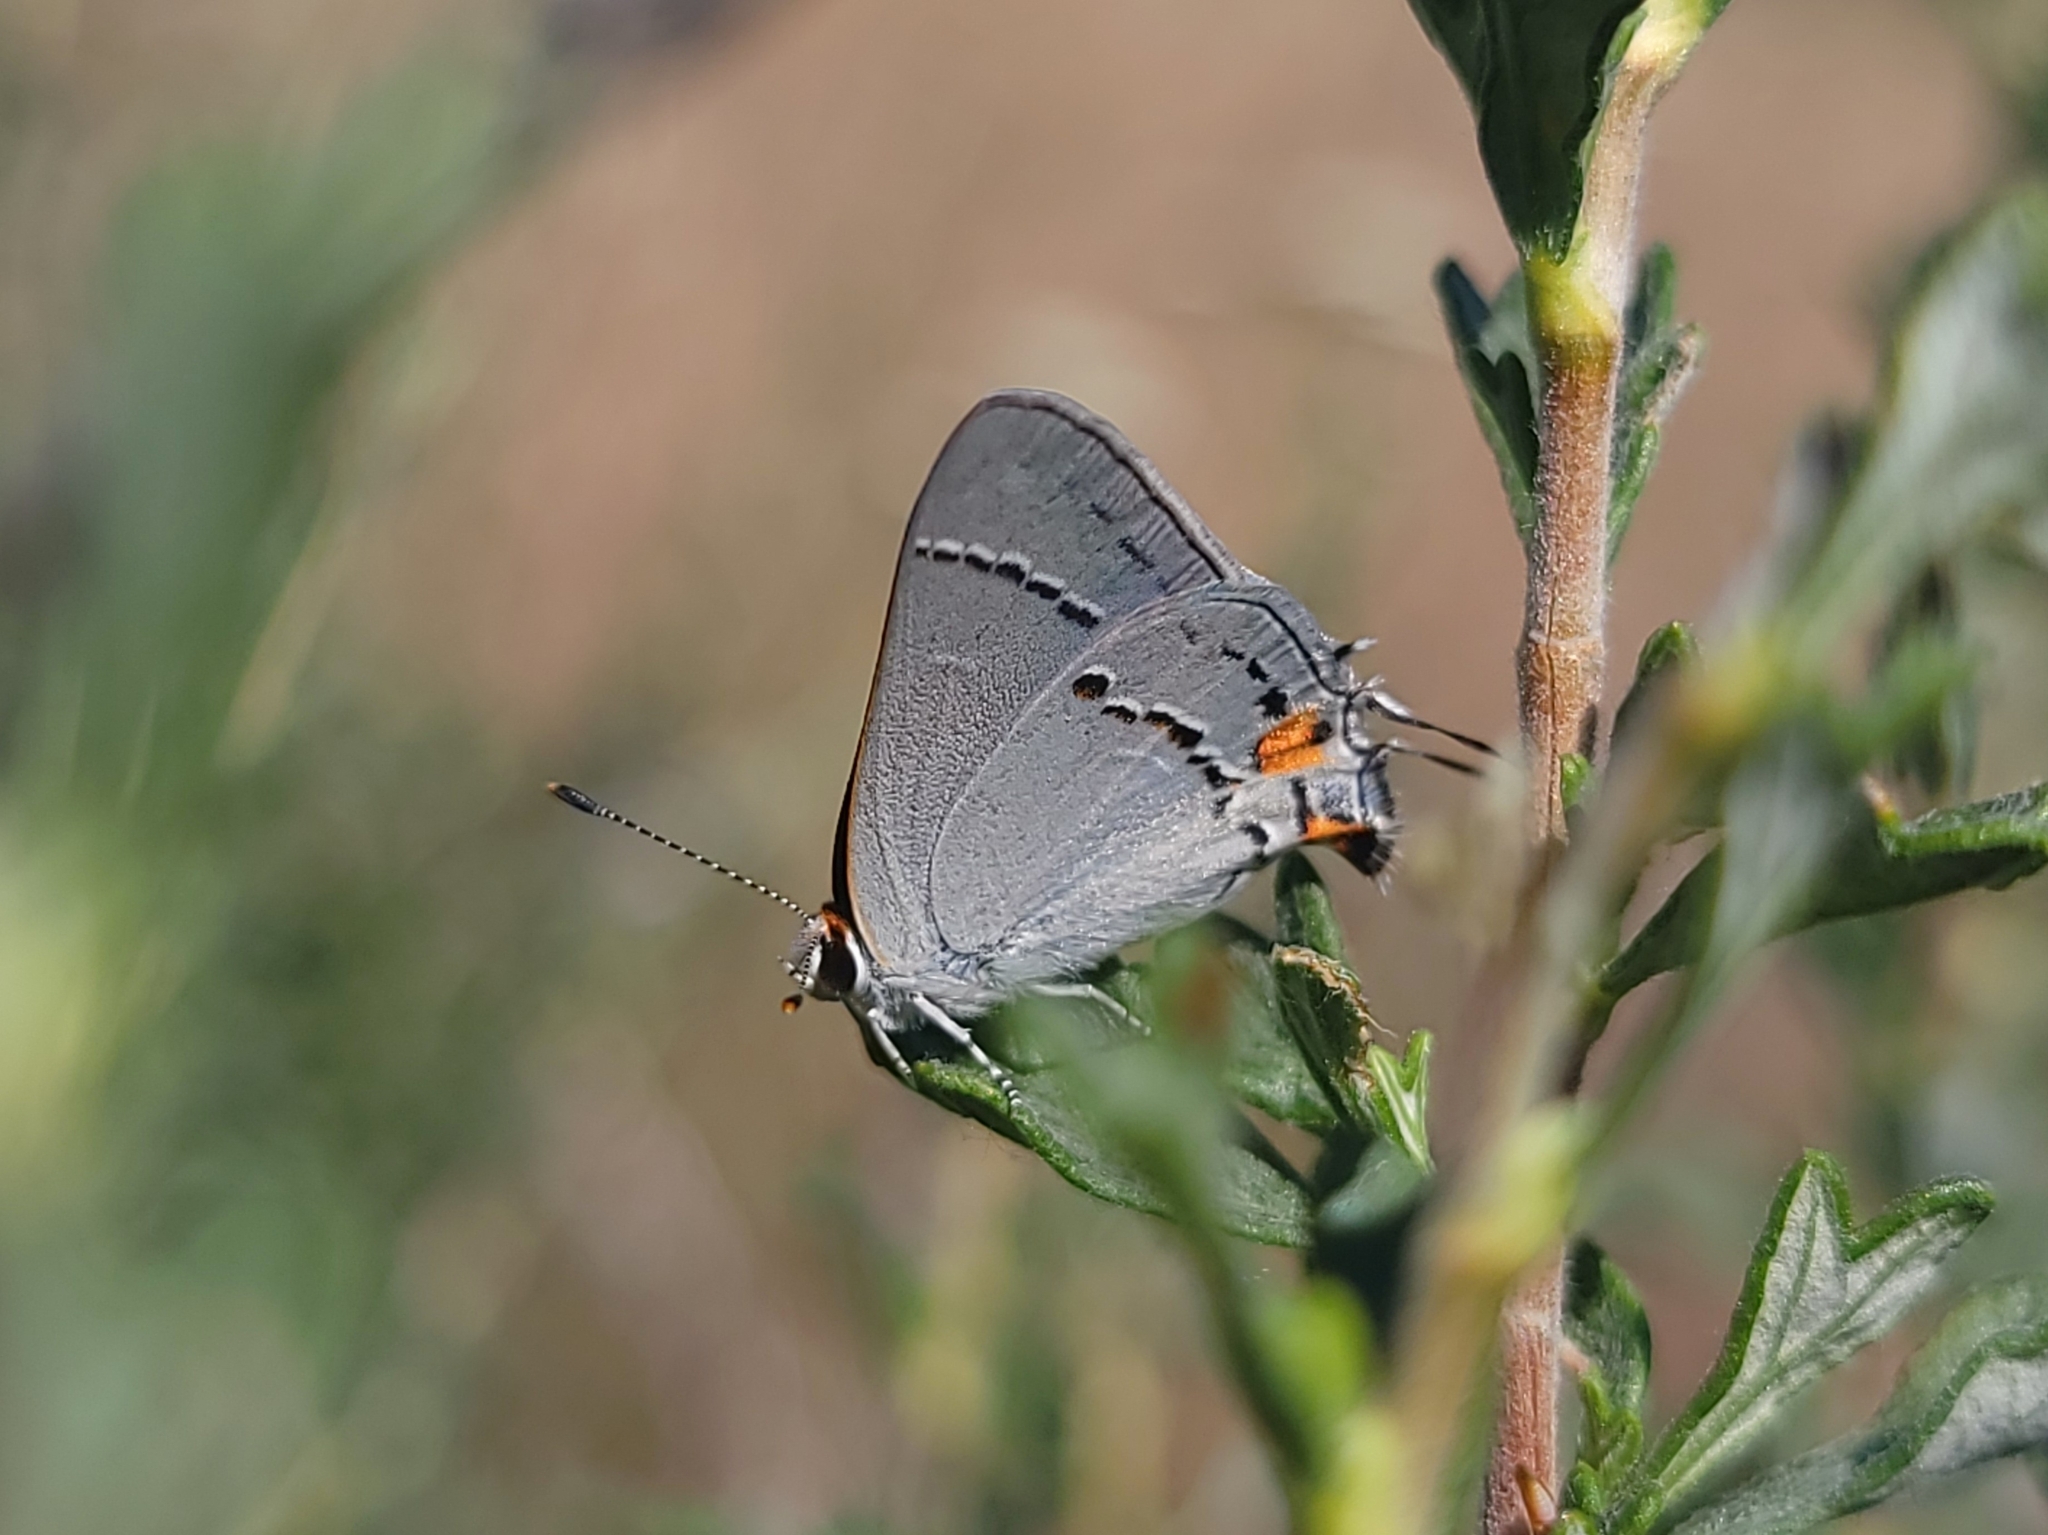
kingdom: Animalia
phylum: Arthropoda
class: Insecta
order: Lepidoptera
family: Lycaenidae
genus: Strymon
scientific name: Strymon melinus
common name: Gray hairstreak
